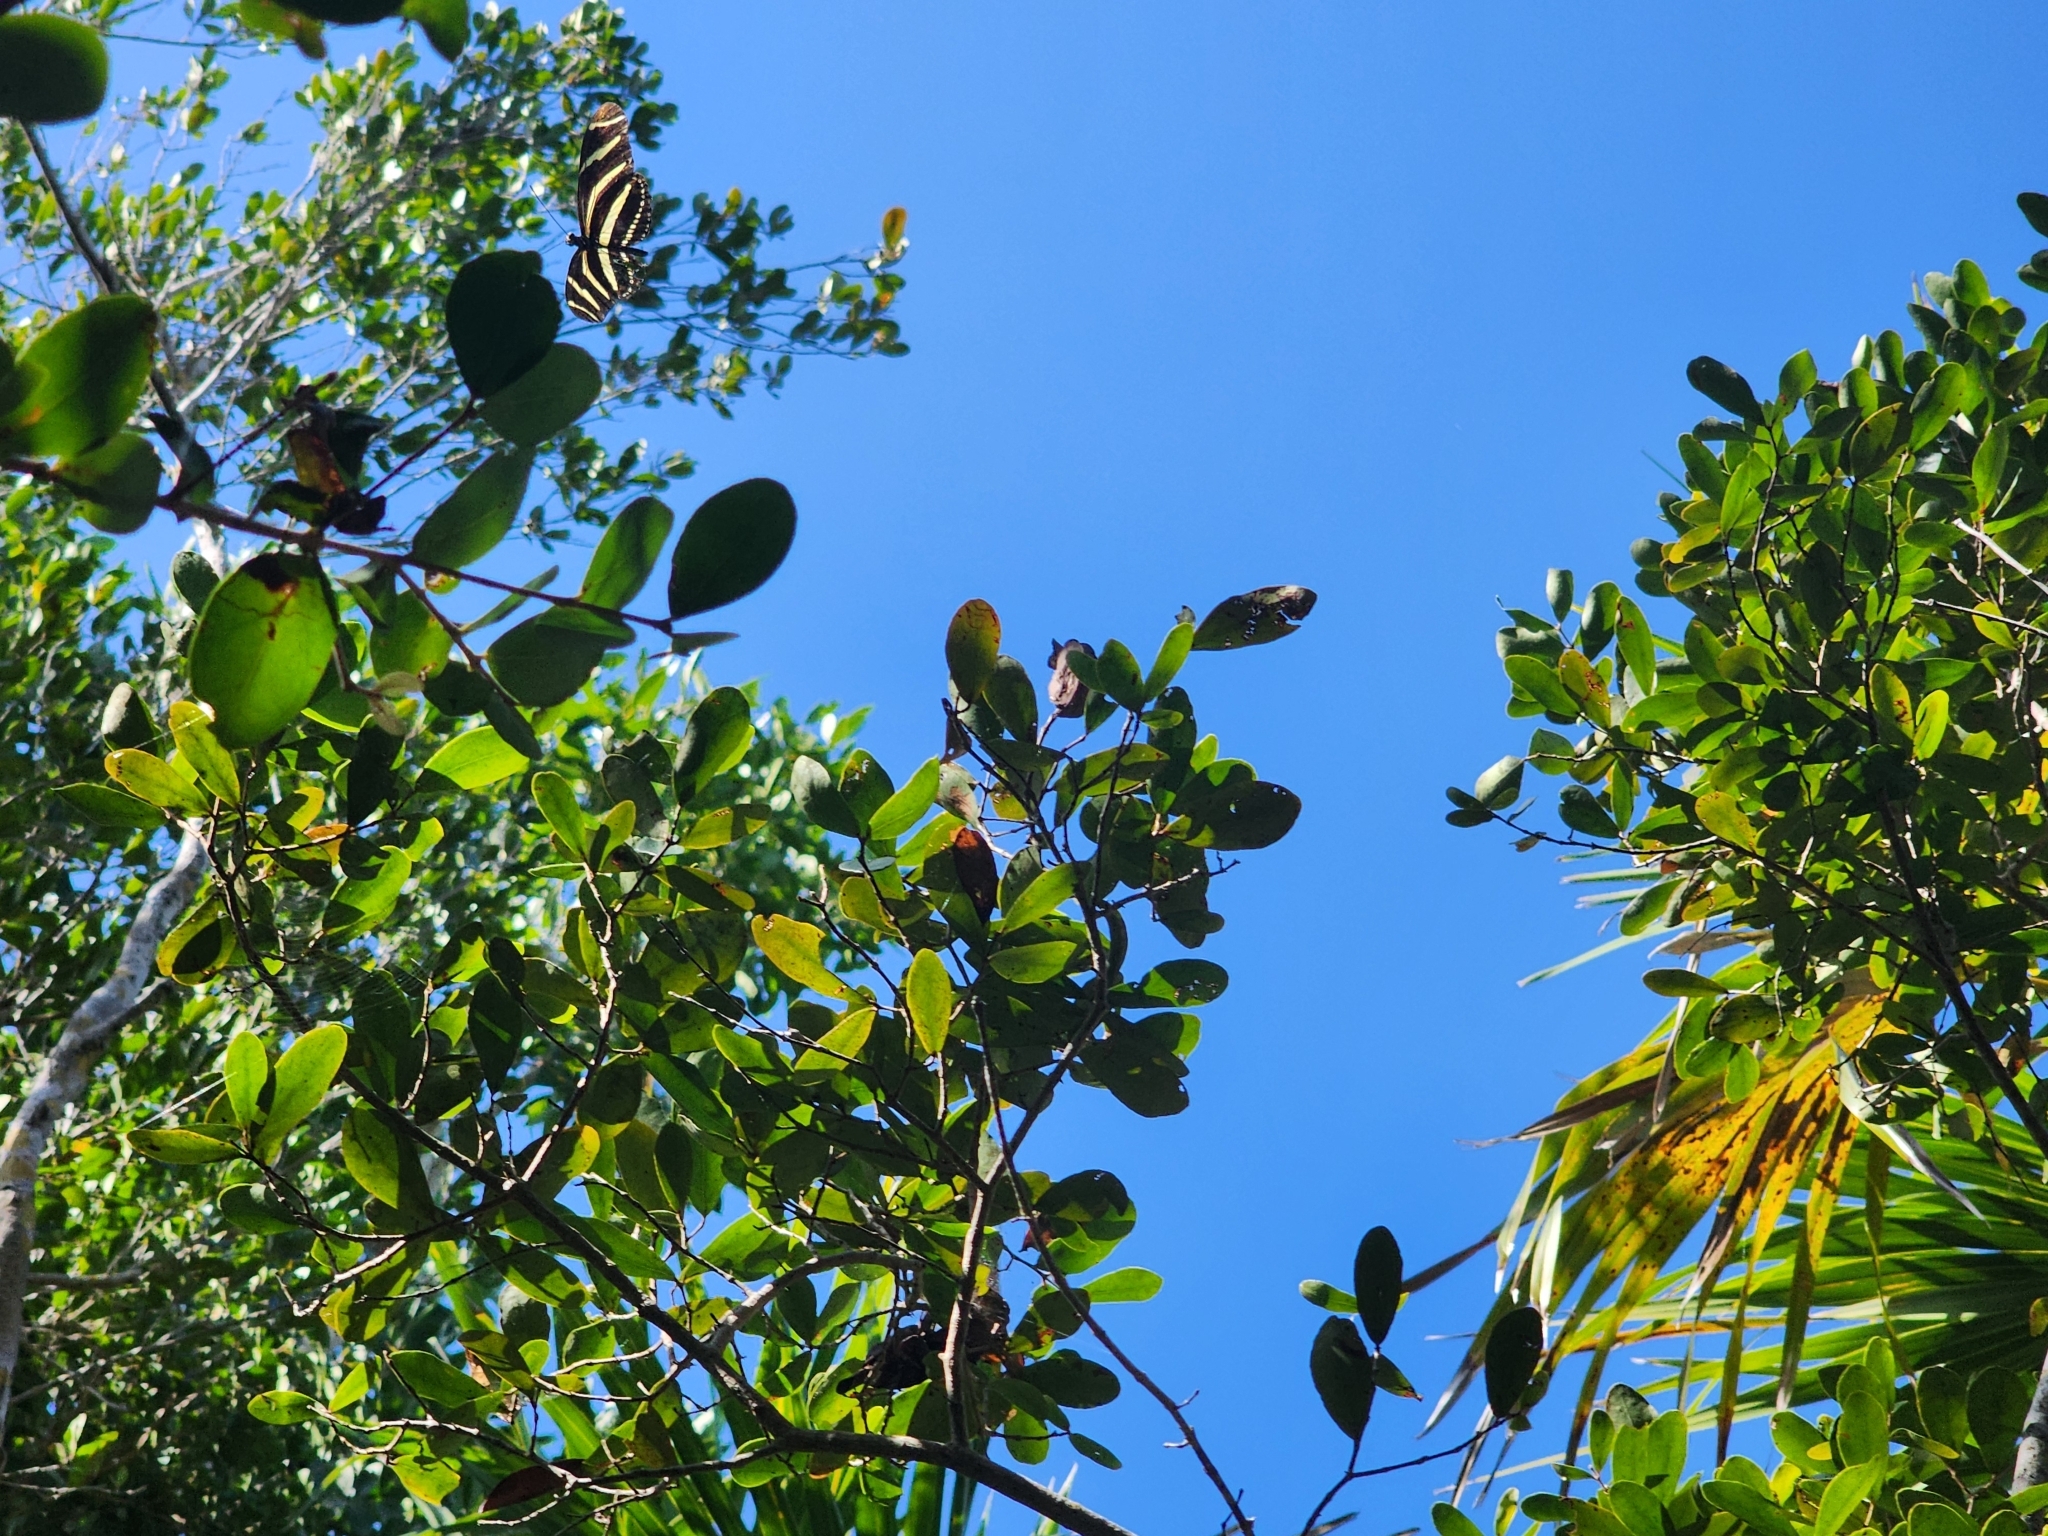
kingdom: Animalia
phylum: Arthropoda
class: Insecta
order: Lepidoptera
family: Nymphalidae
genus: Heliconius
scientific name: Heliconius charithonia
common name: Zebra long wing
